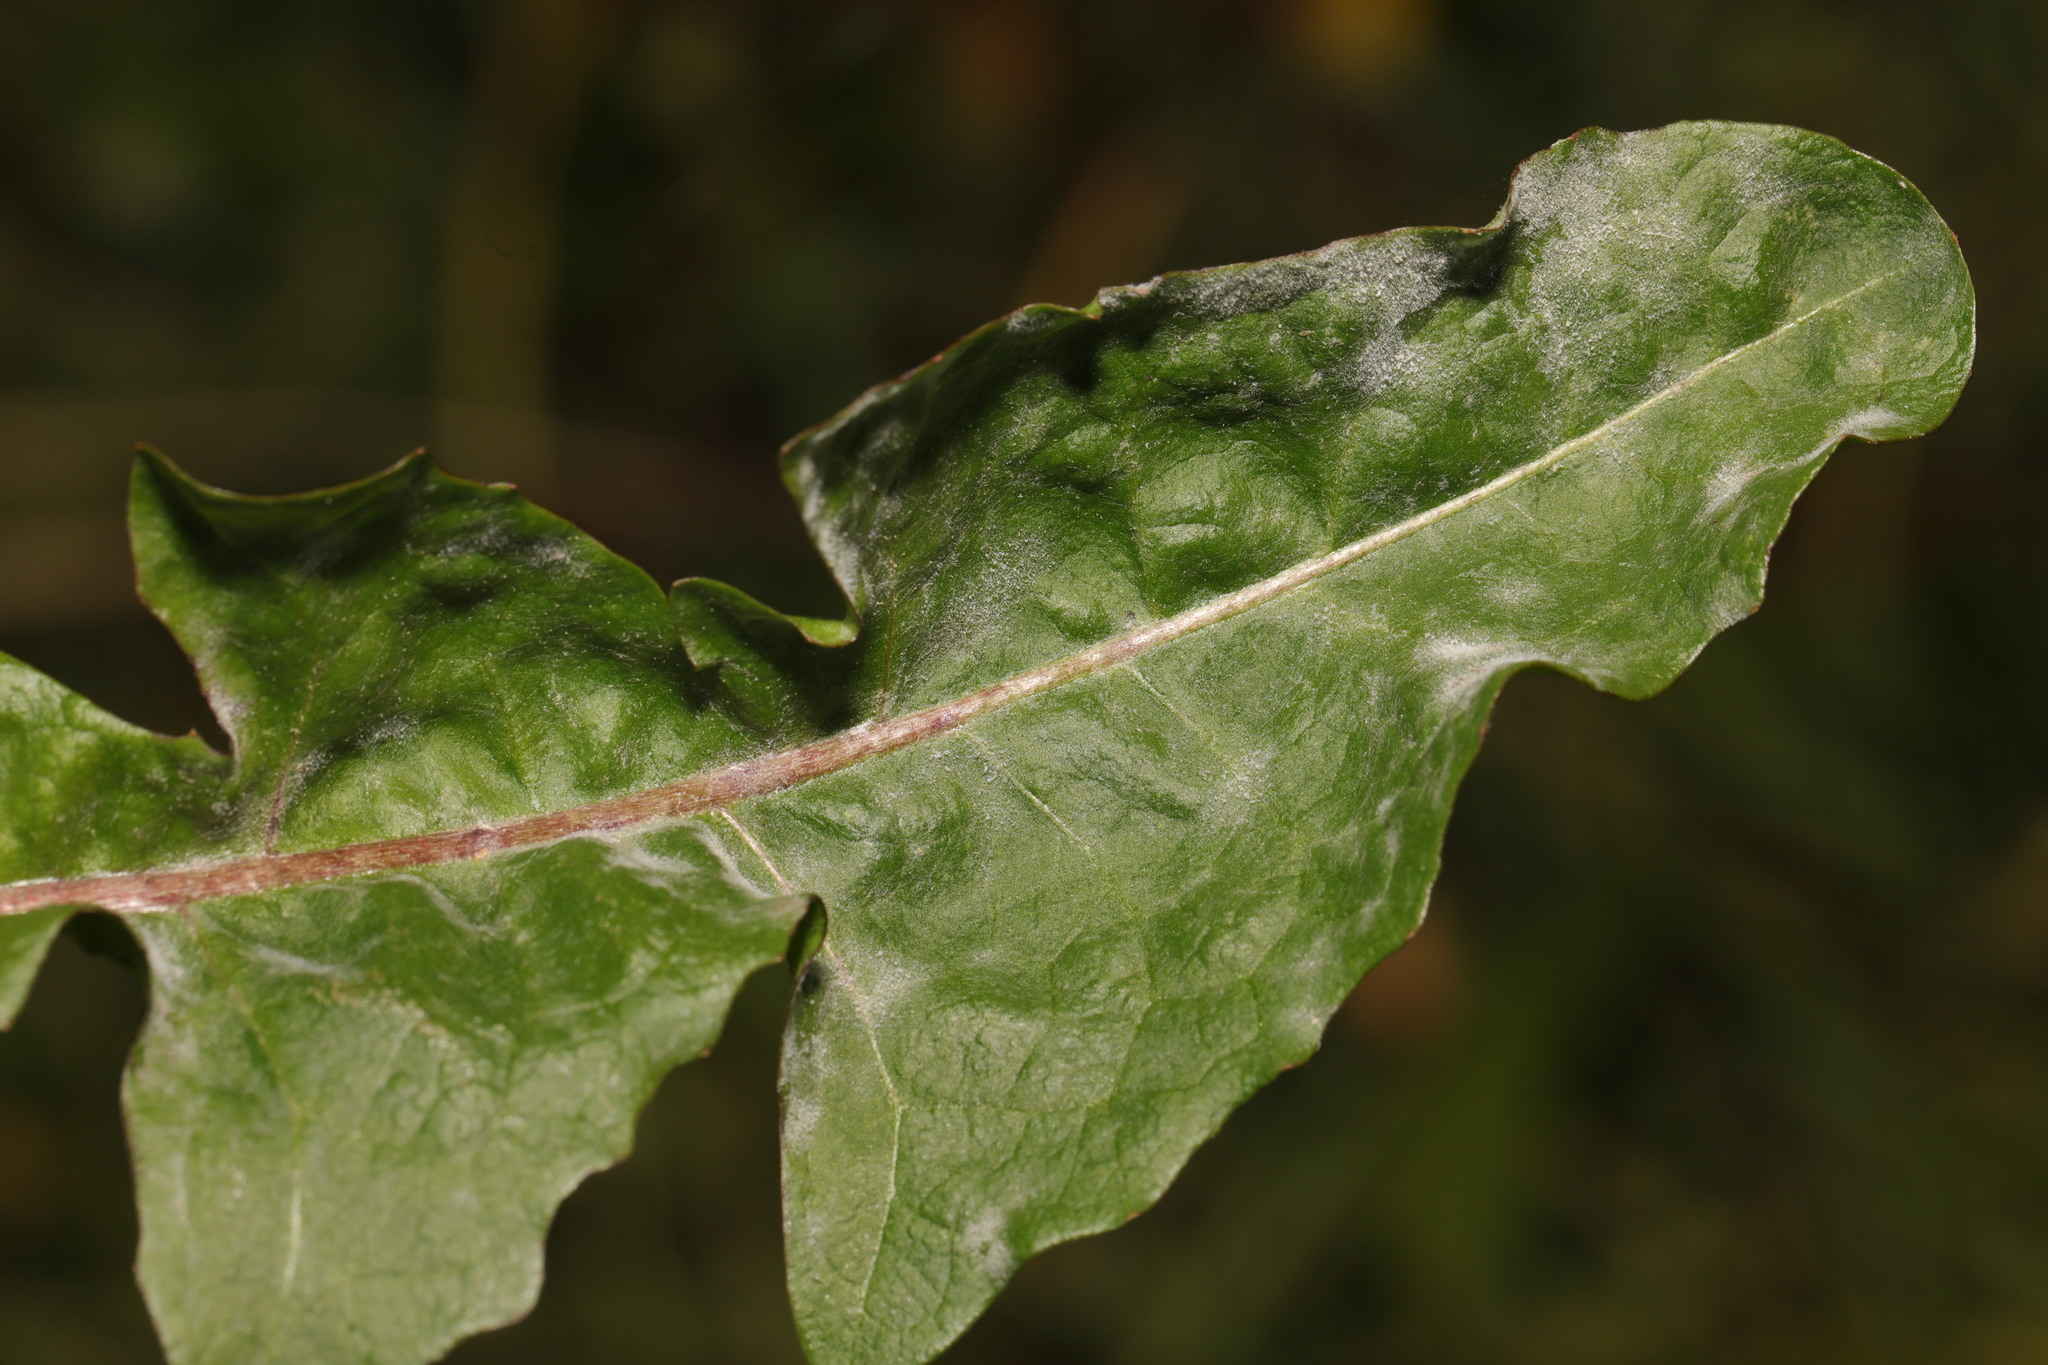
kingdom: Fungi
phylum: Ascomycota
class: Leotiomycetes
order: Helotiales
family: Erysiphaceae
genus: Podosphaera
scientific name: Podosphaera erigerontis-canadensis
